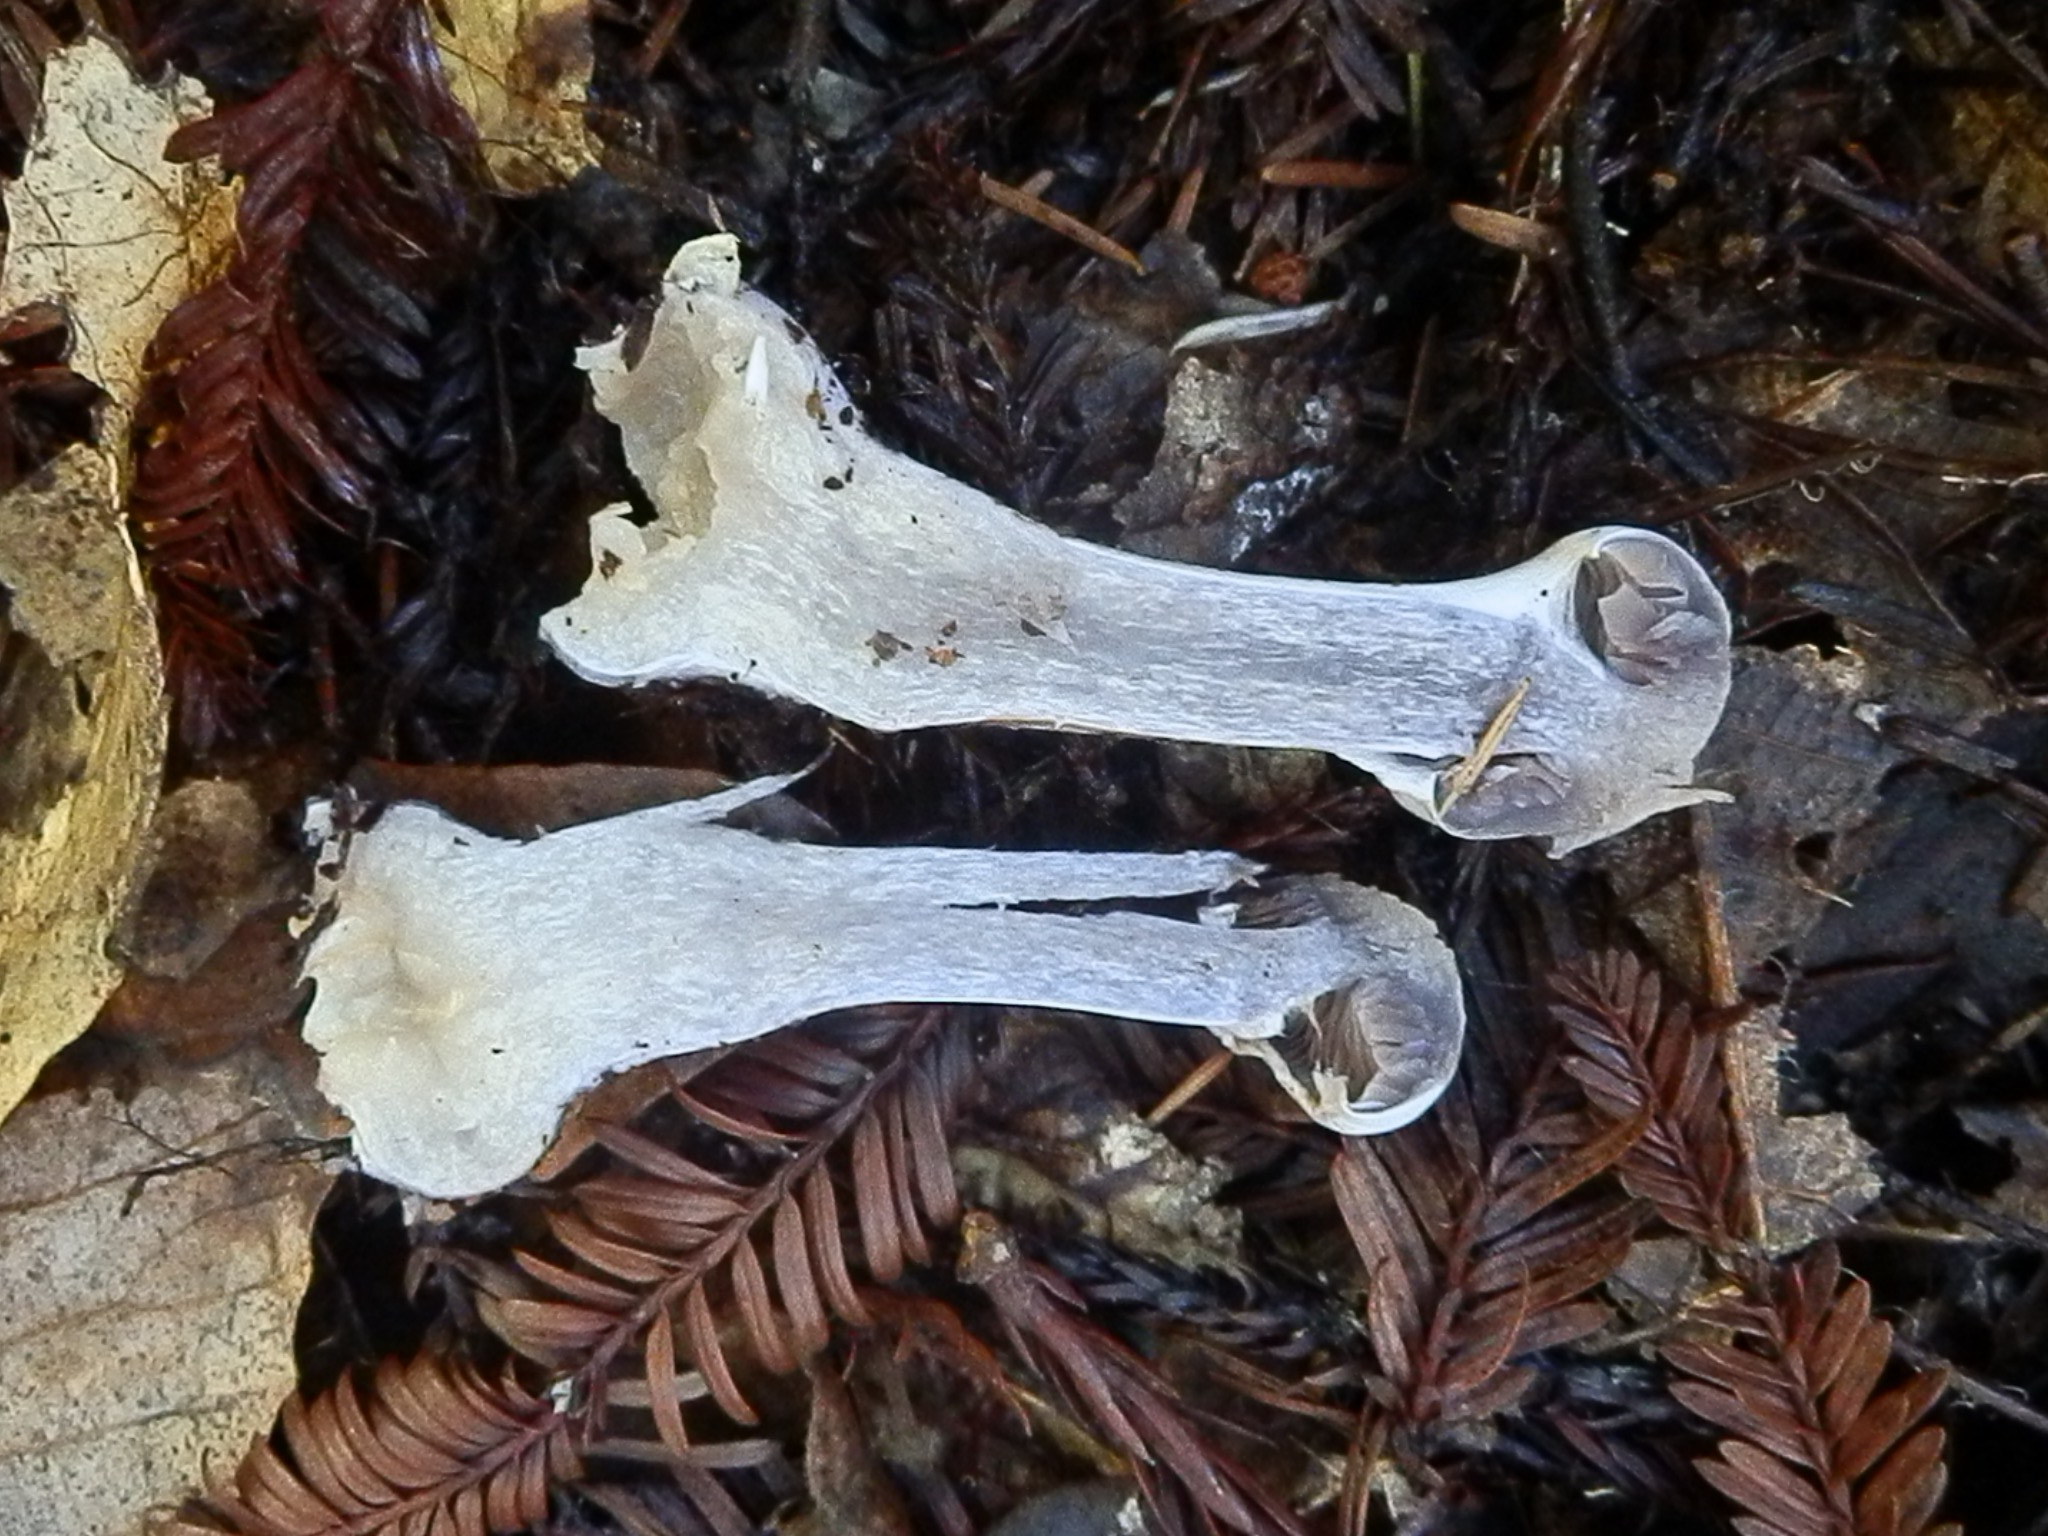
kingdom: Fungi
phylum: Basidiomycota
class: Agaricomycetes
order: Agaricales
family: Cortinariaceae
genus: Cortinarius
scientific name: Cortinarius alboviolaceus
